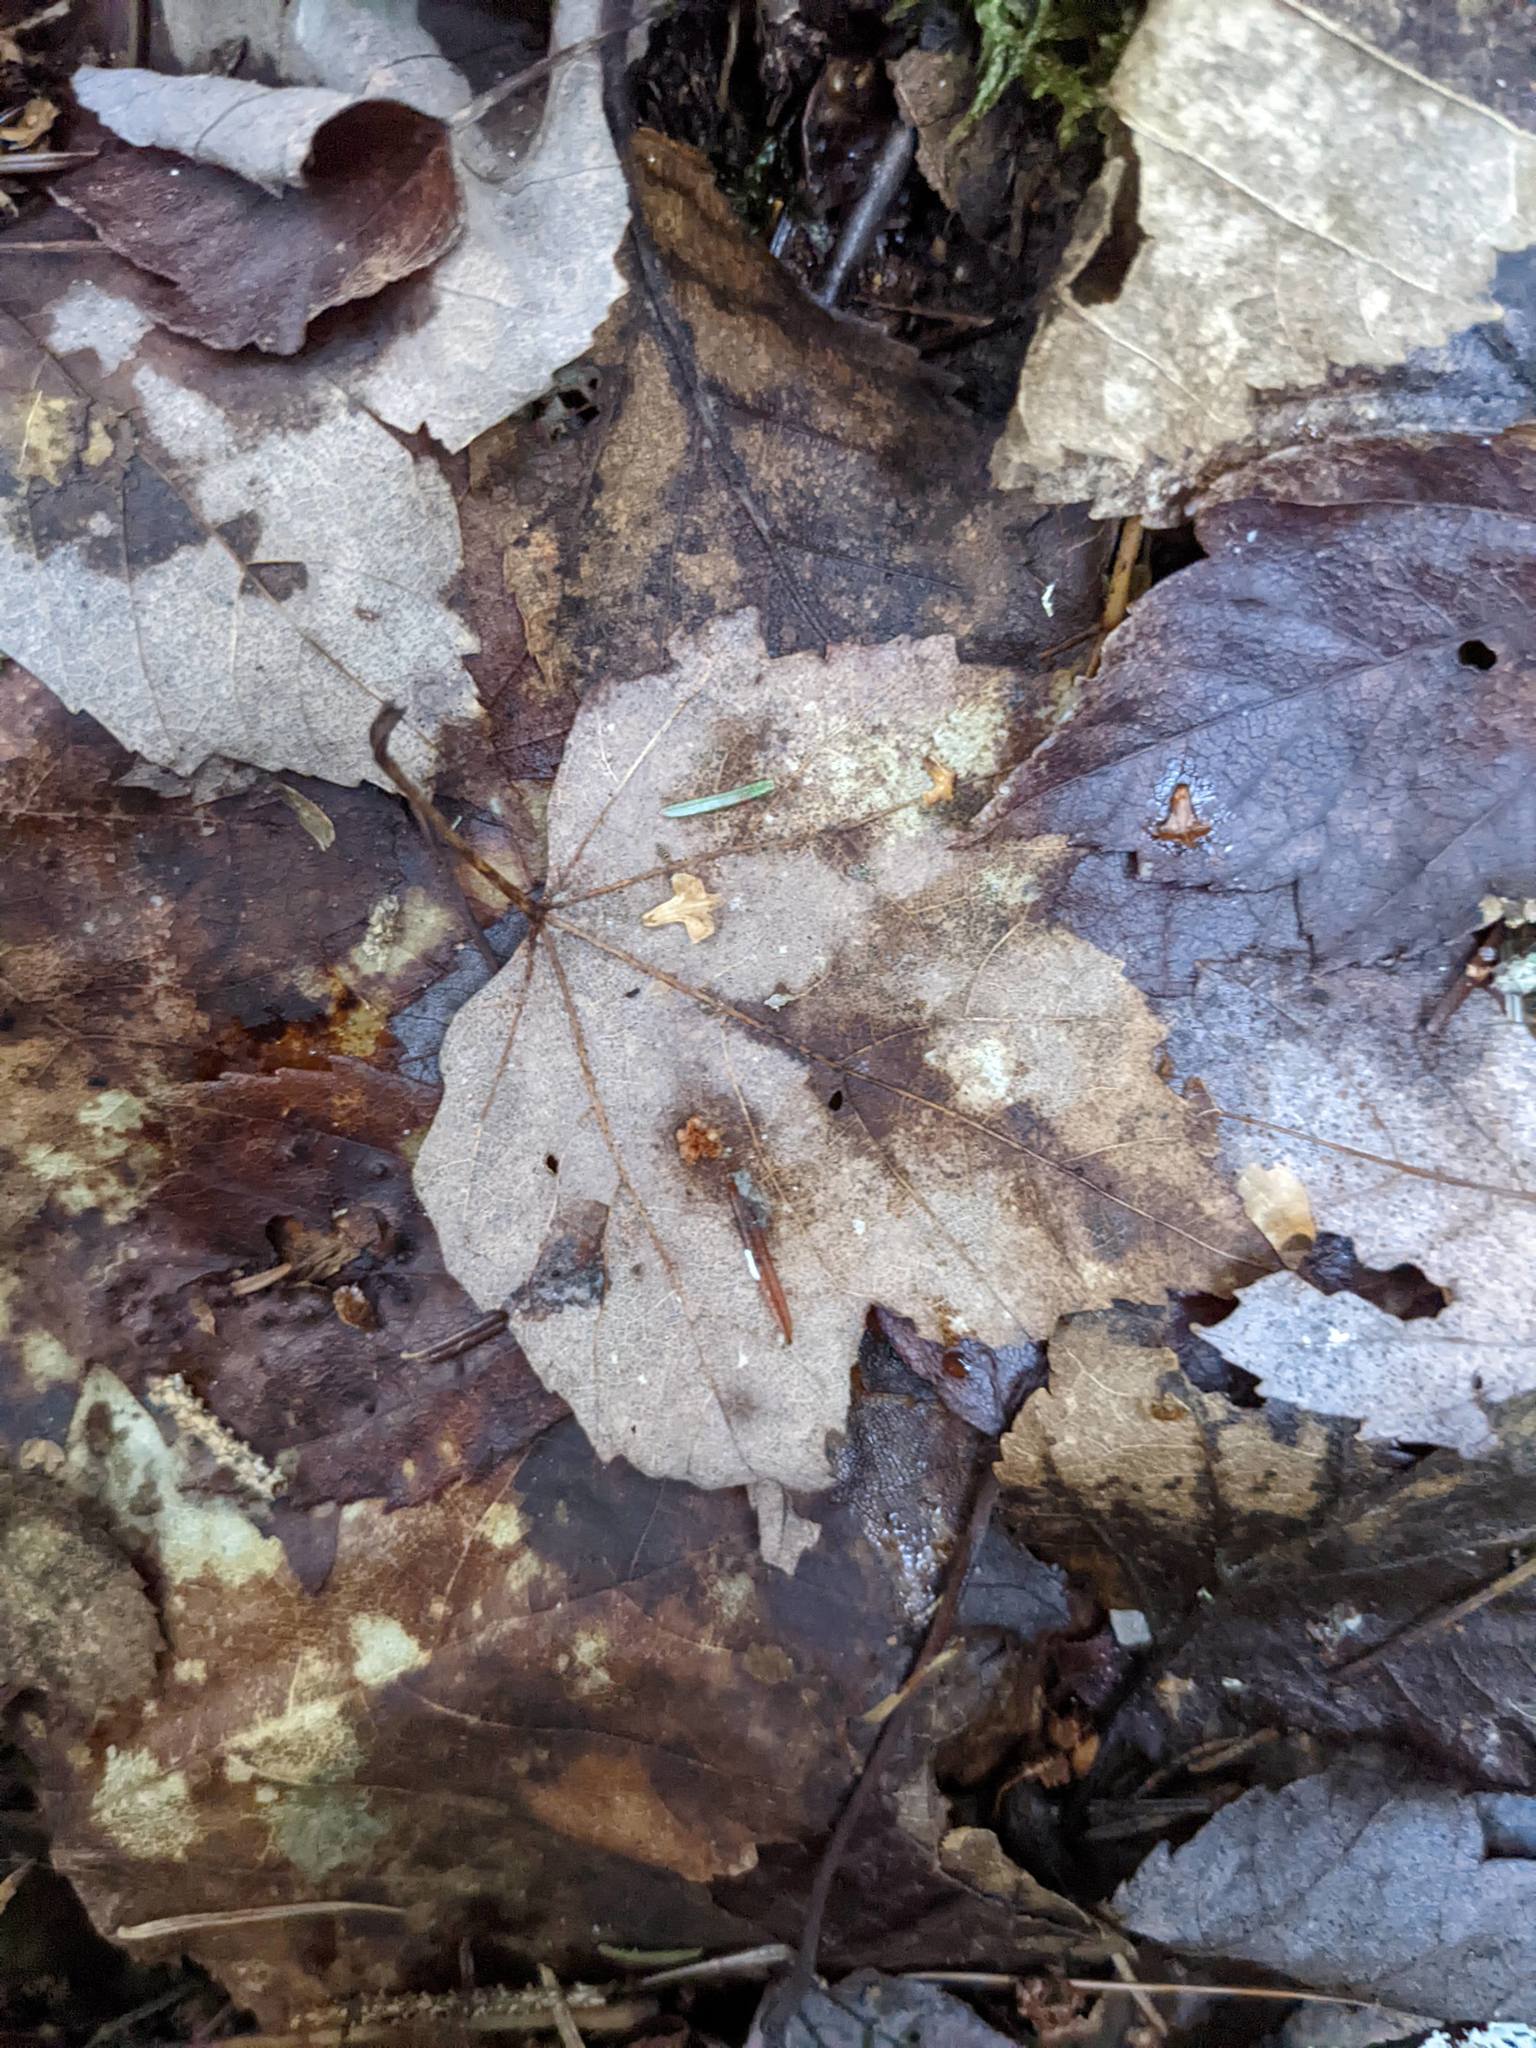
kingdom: Plantae
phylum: Tracheophyta
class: Magnoliopsida
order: Sapindales
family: Sapindaceae
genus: Acer
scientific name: Acer rubrum
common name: Red maple
